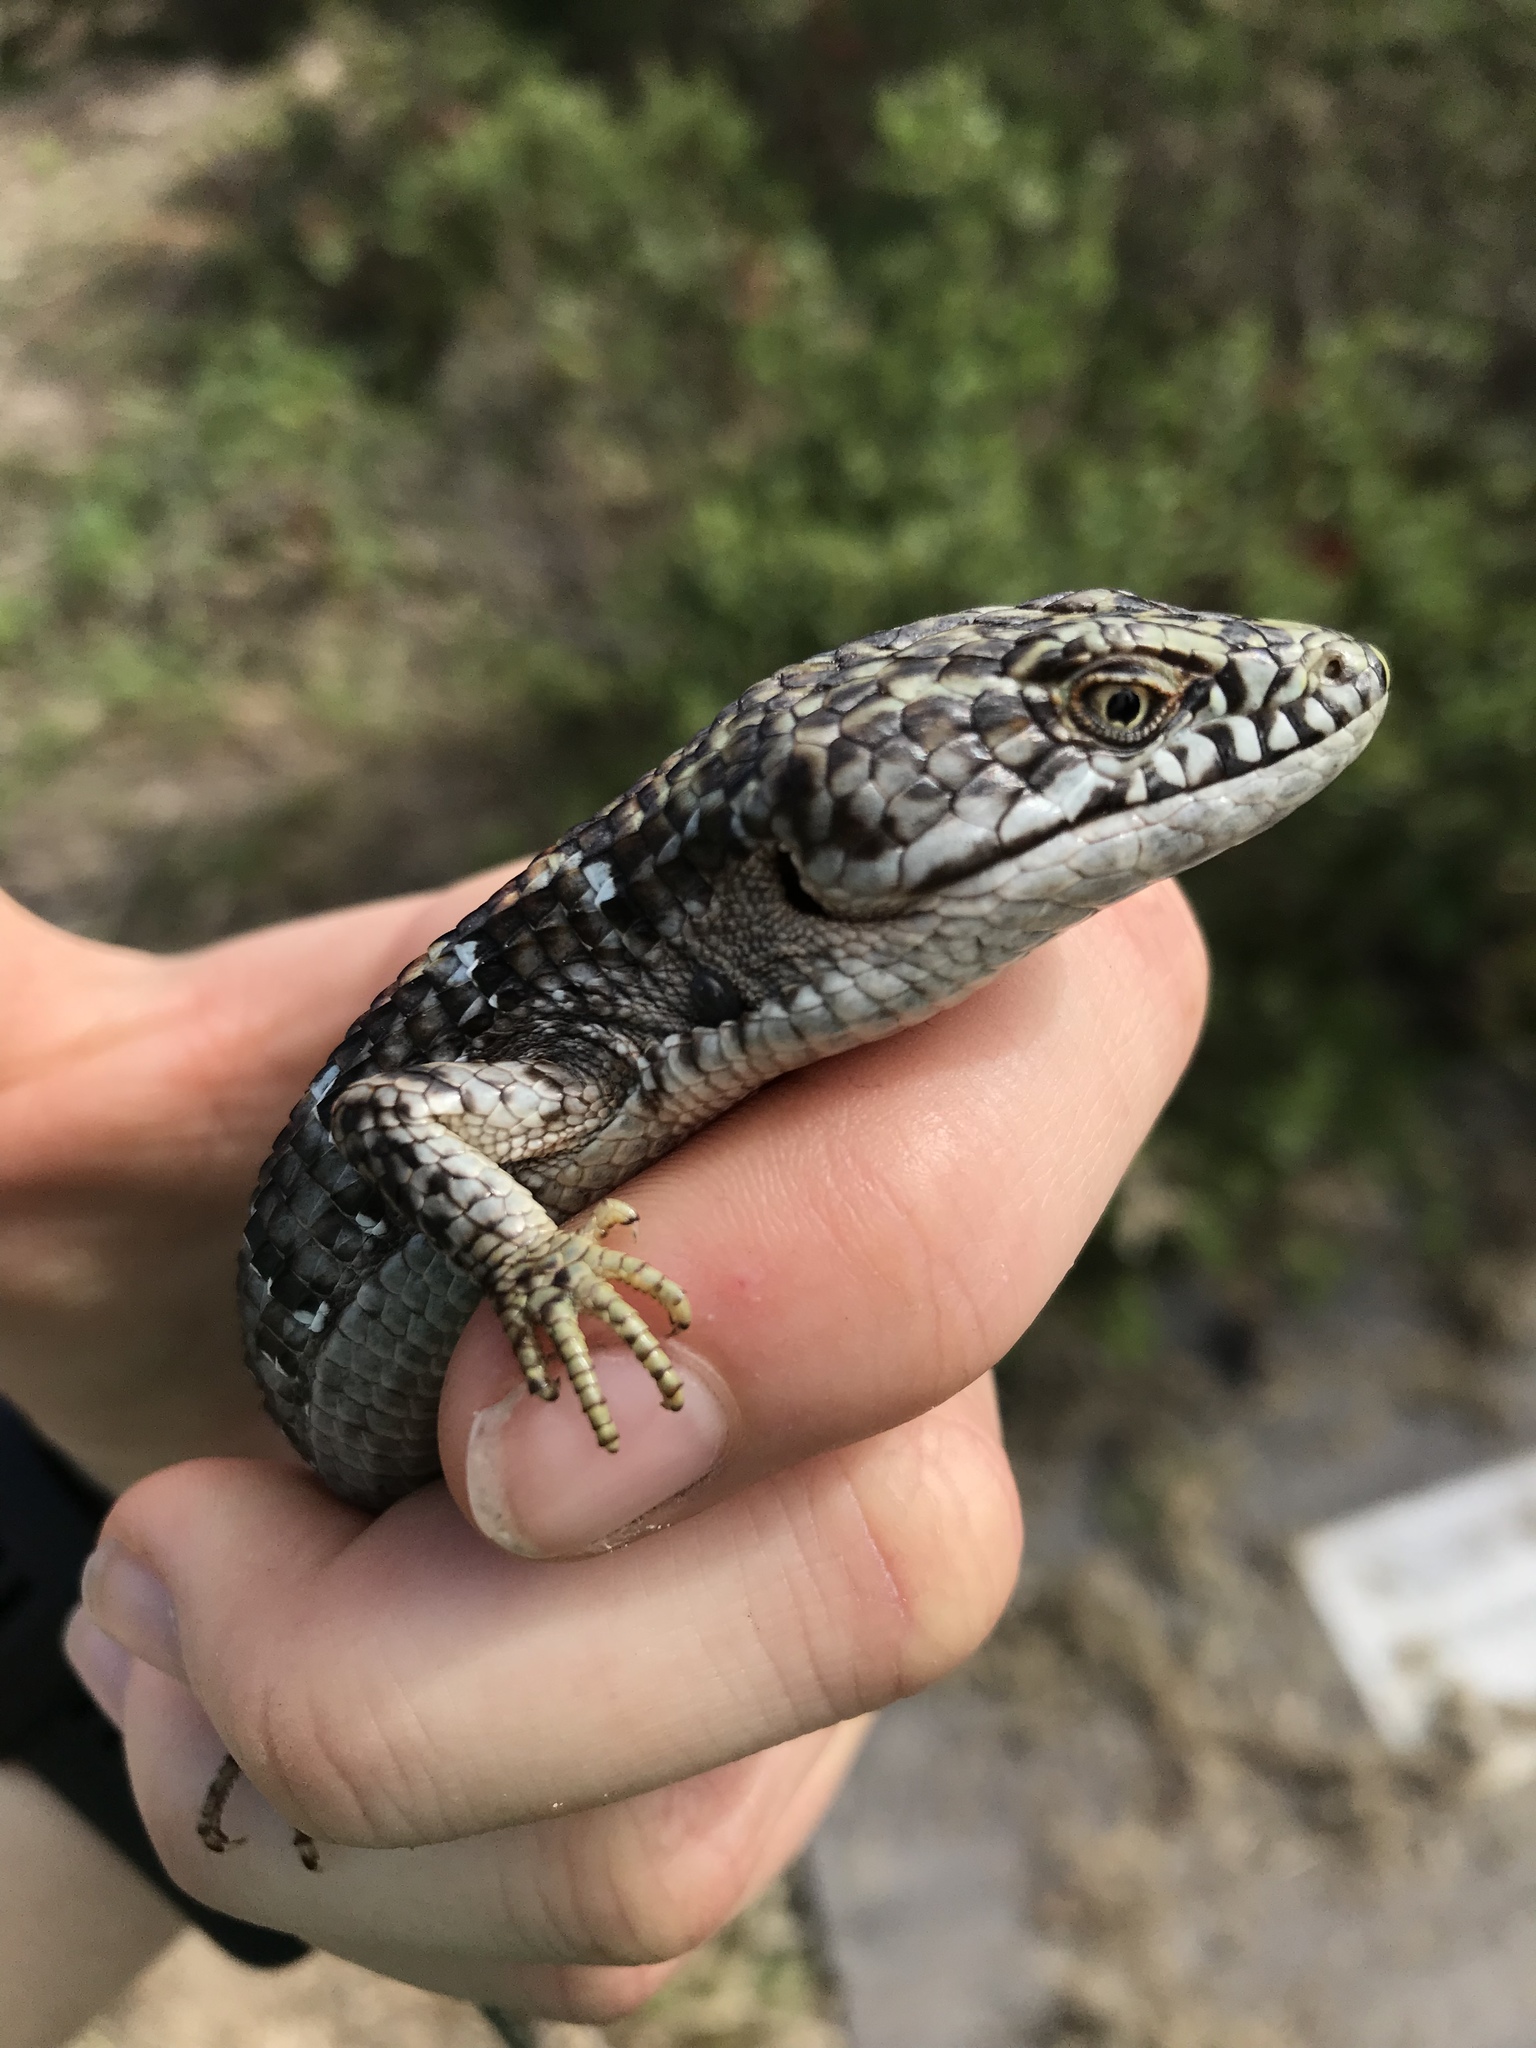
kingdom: Animalia
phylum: Chordata
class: Squamata
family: Anguidae
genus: Elgaria
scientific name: Elgaria multicarinata
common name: Southern alligator lizard
